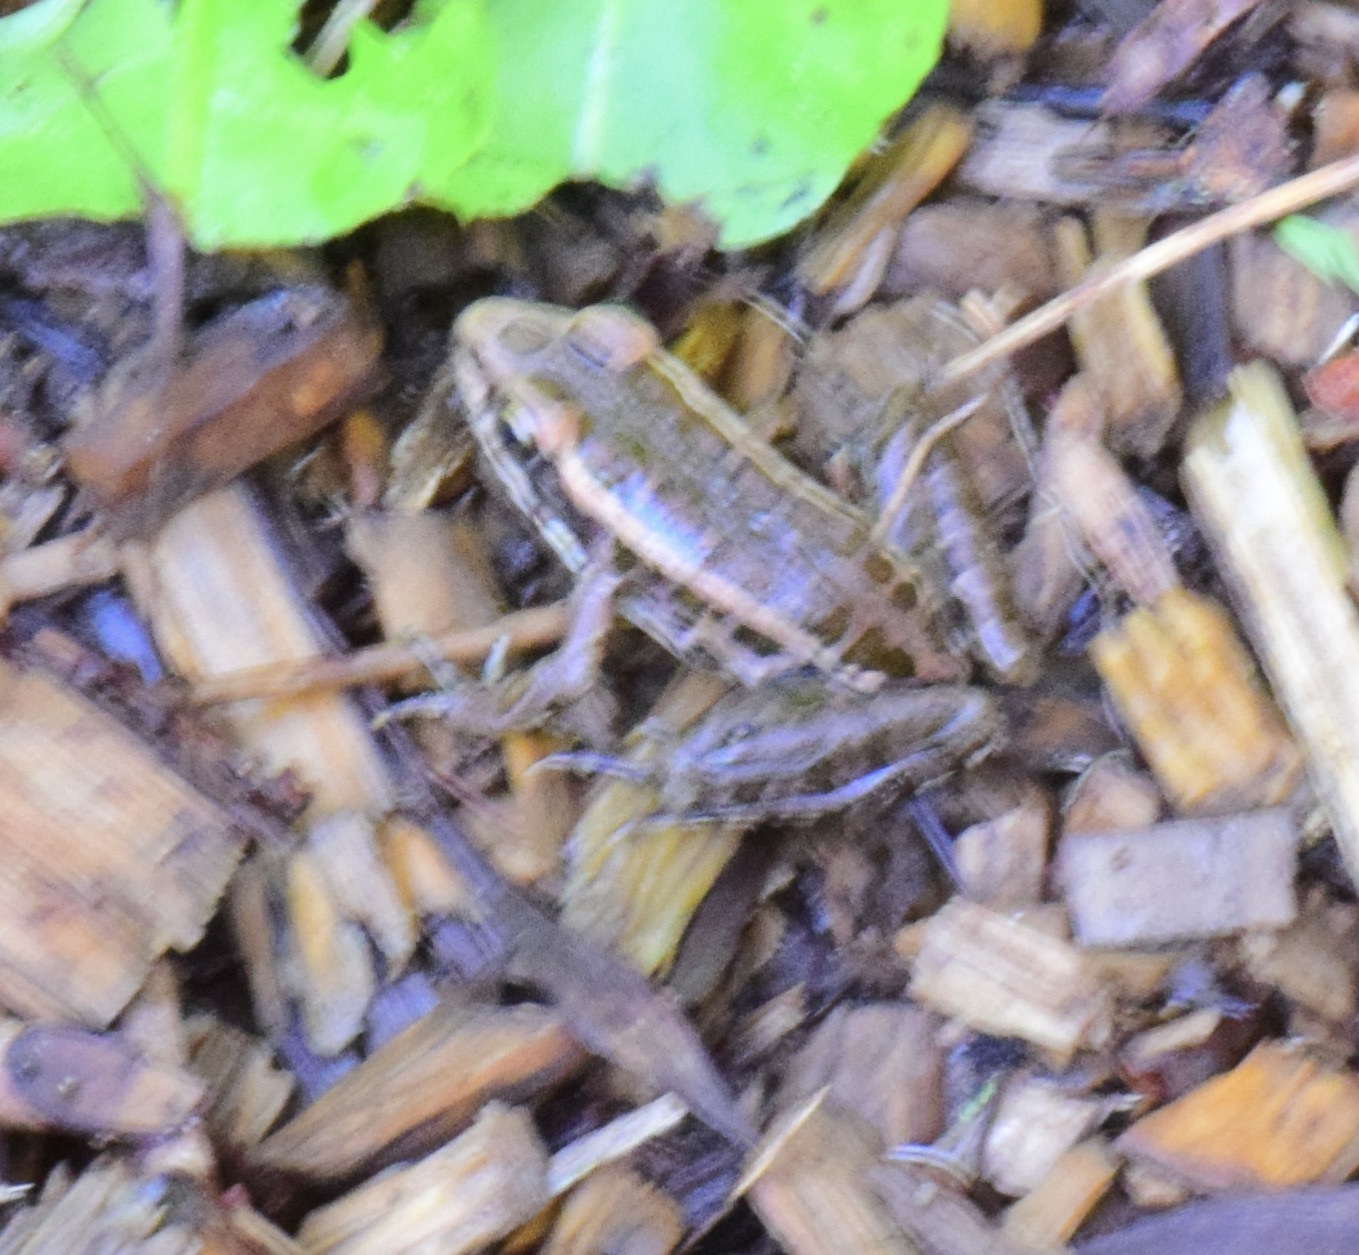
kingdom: Animalia
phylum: Chordata
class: Amphibia
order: Anura
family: Ranidae
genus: Lithobates
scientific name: Lithobates palustris
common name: Pickerel frog
